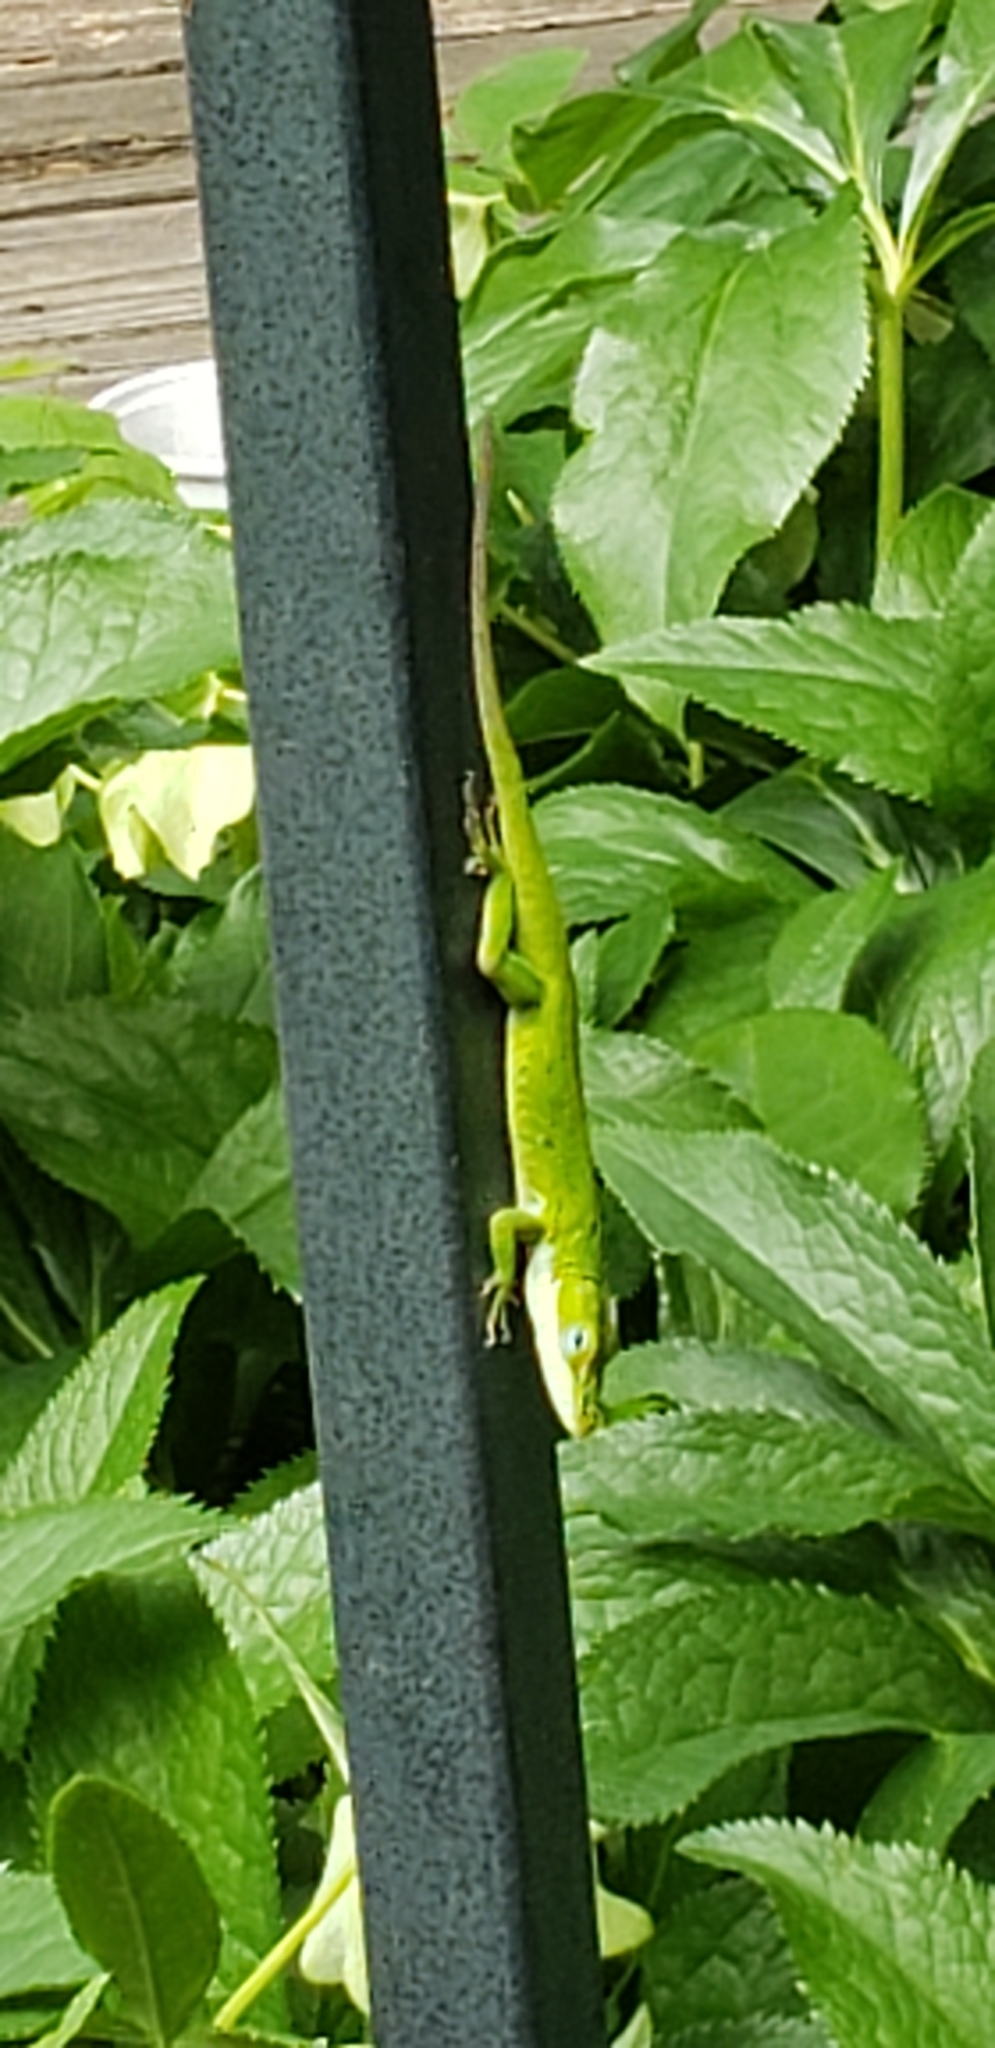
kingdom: Animalia
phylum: Chordata
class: Squamata
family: Dactyloidae
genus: Anolis
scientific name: Anolis carolinensis
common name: Green anole
